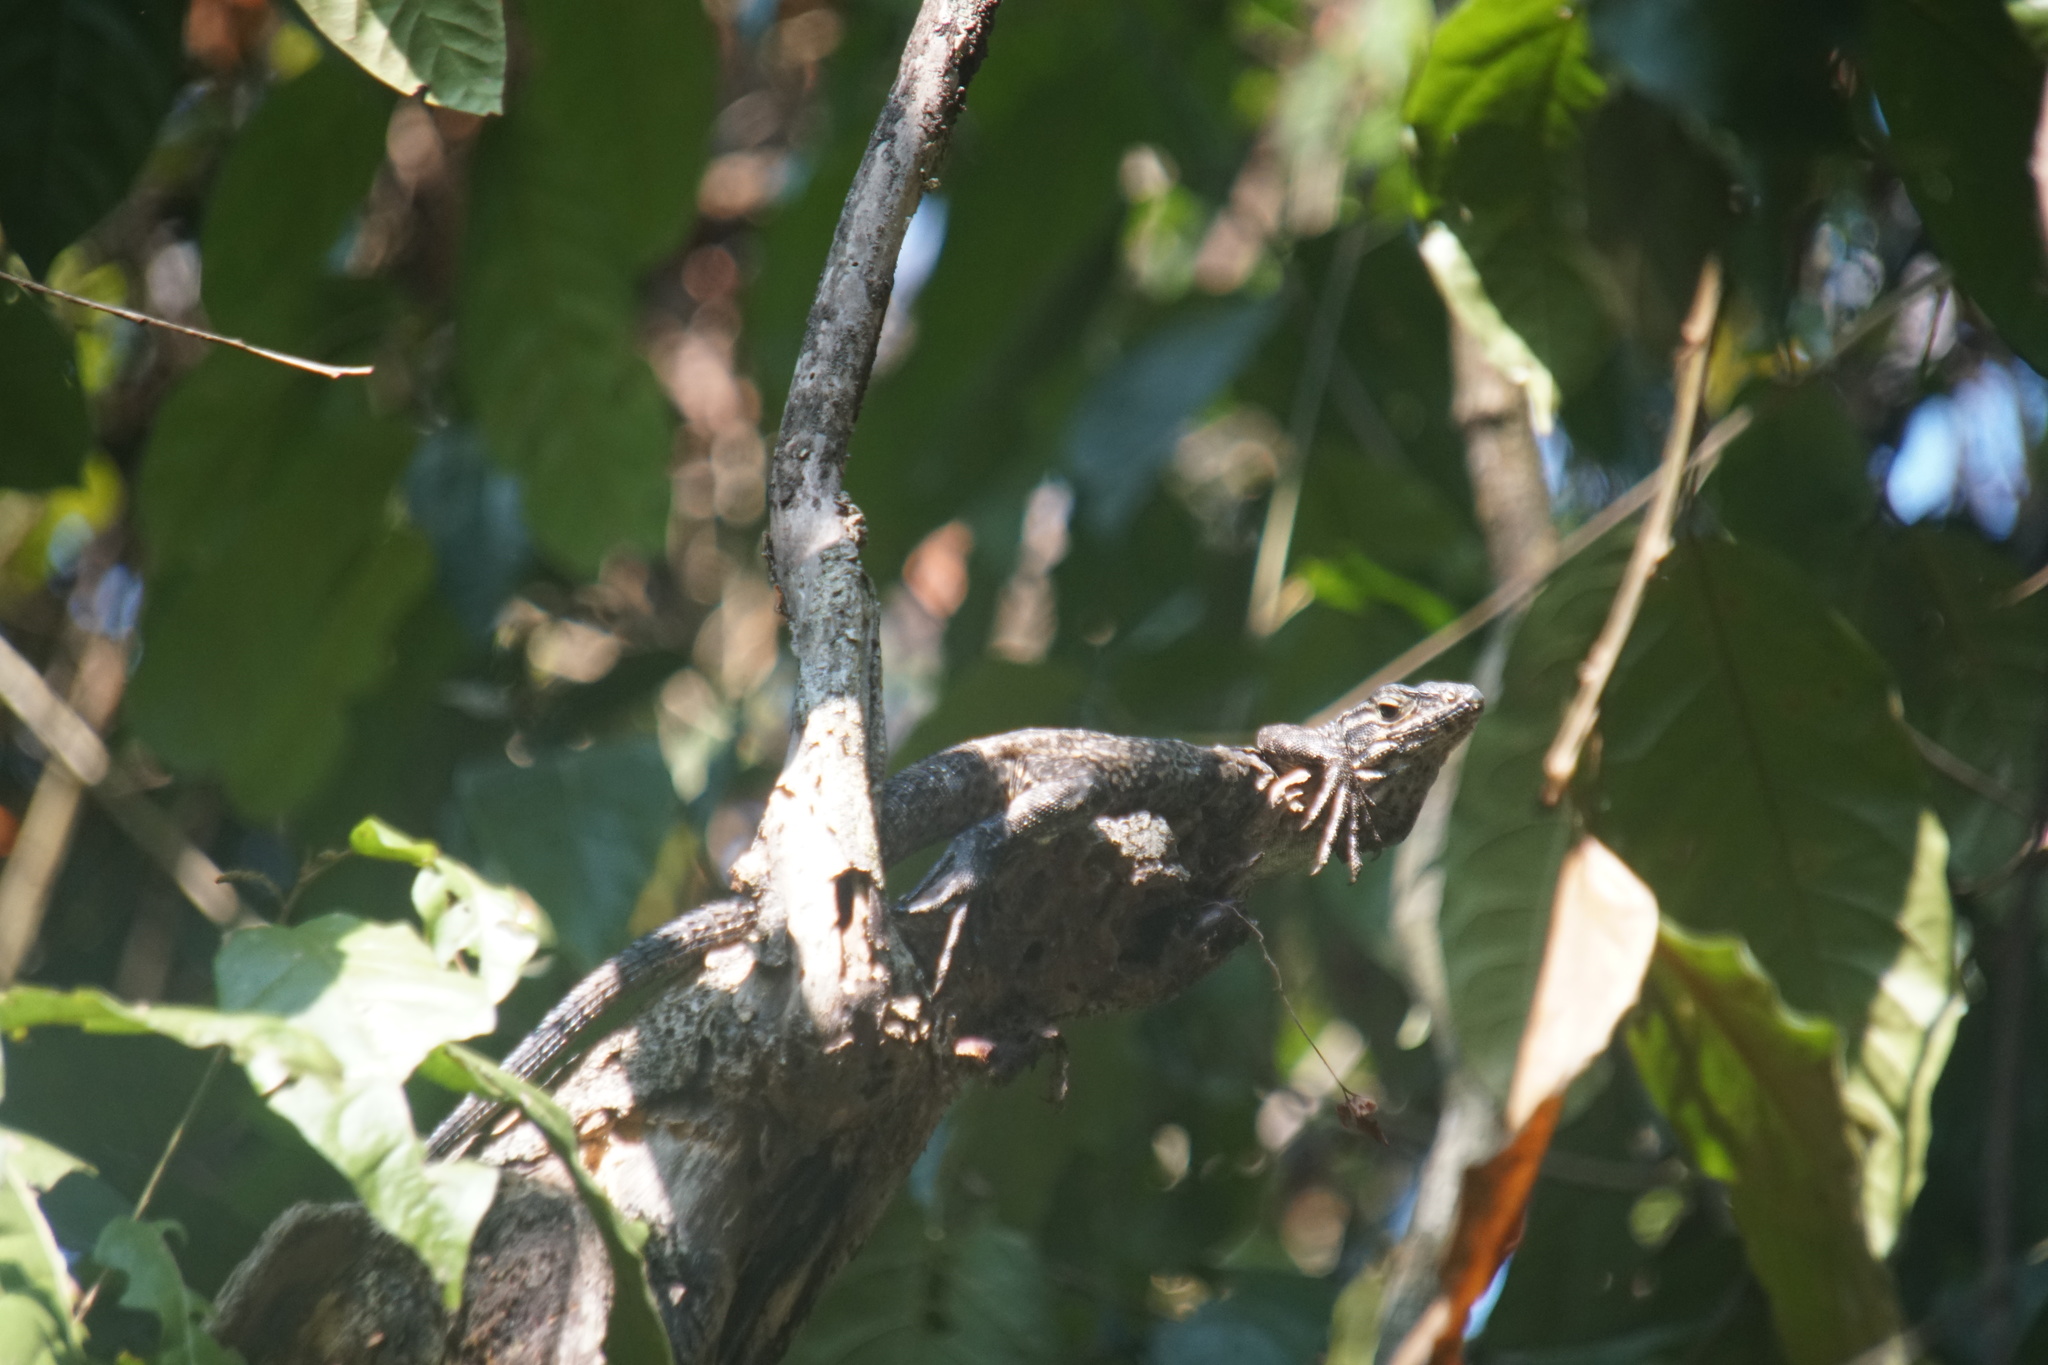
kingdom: Animalia
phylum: Chordata
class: Squamata
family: Iguanidae
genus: Ctenosaura
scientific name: Ctenosaura similis
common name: Black spiny-tailed iguana
